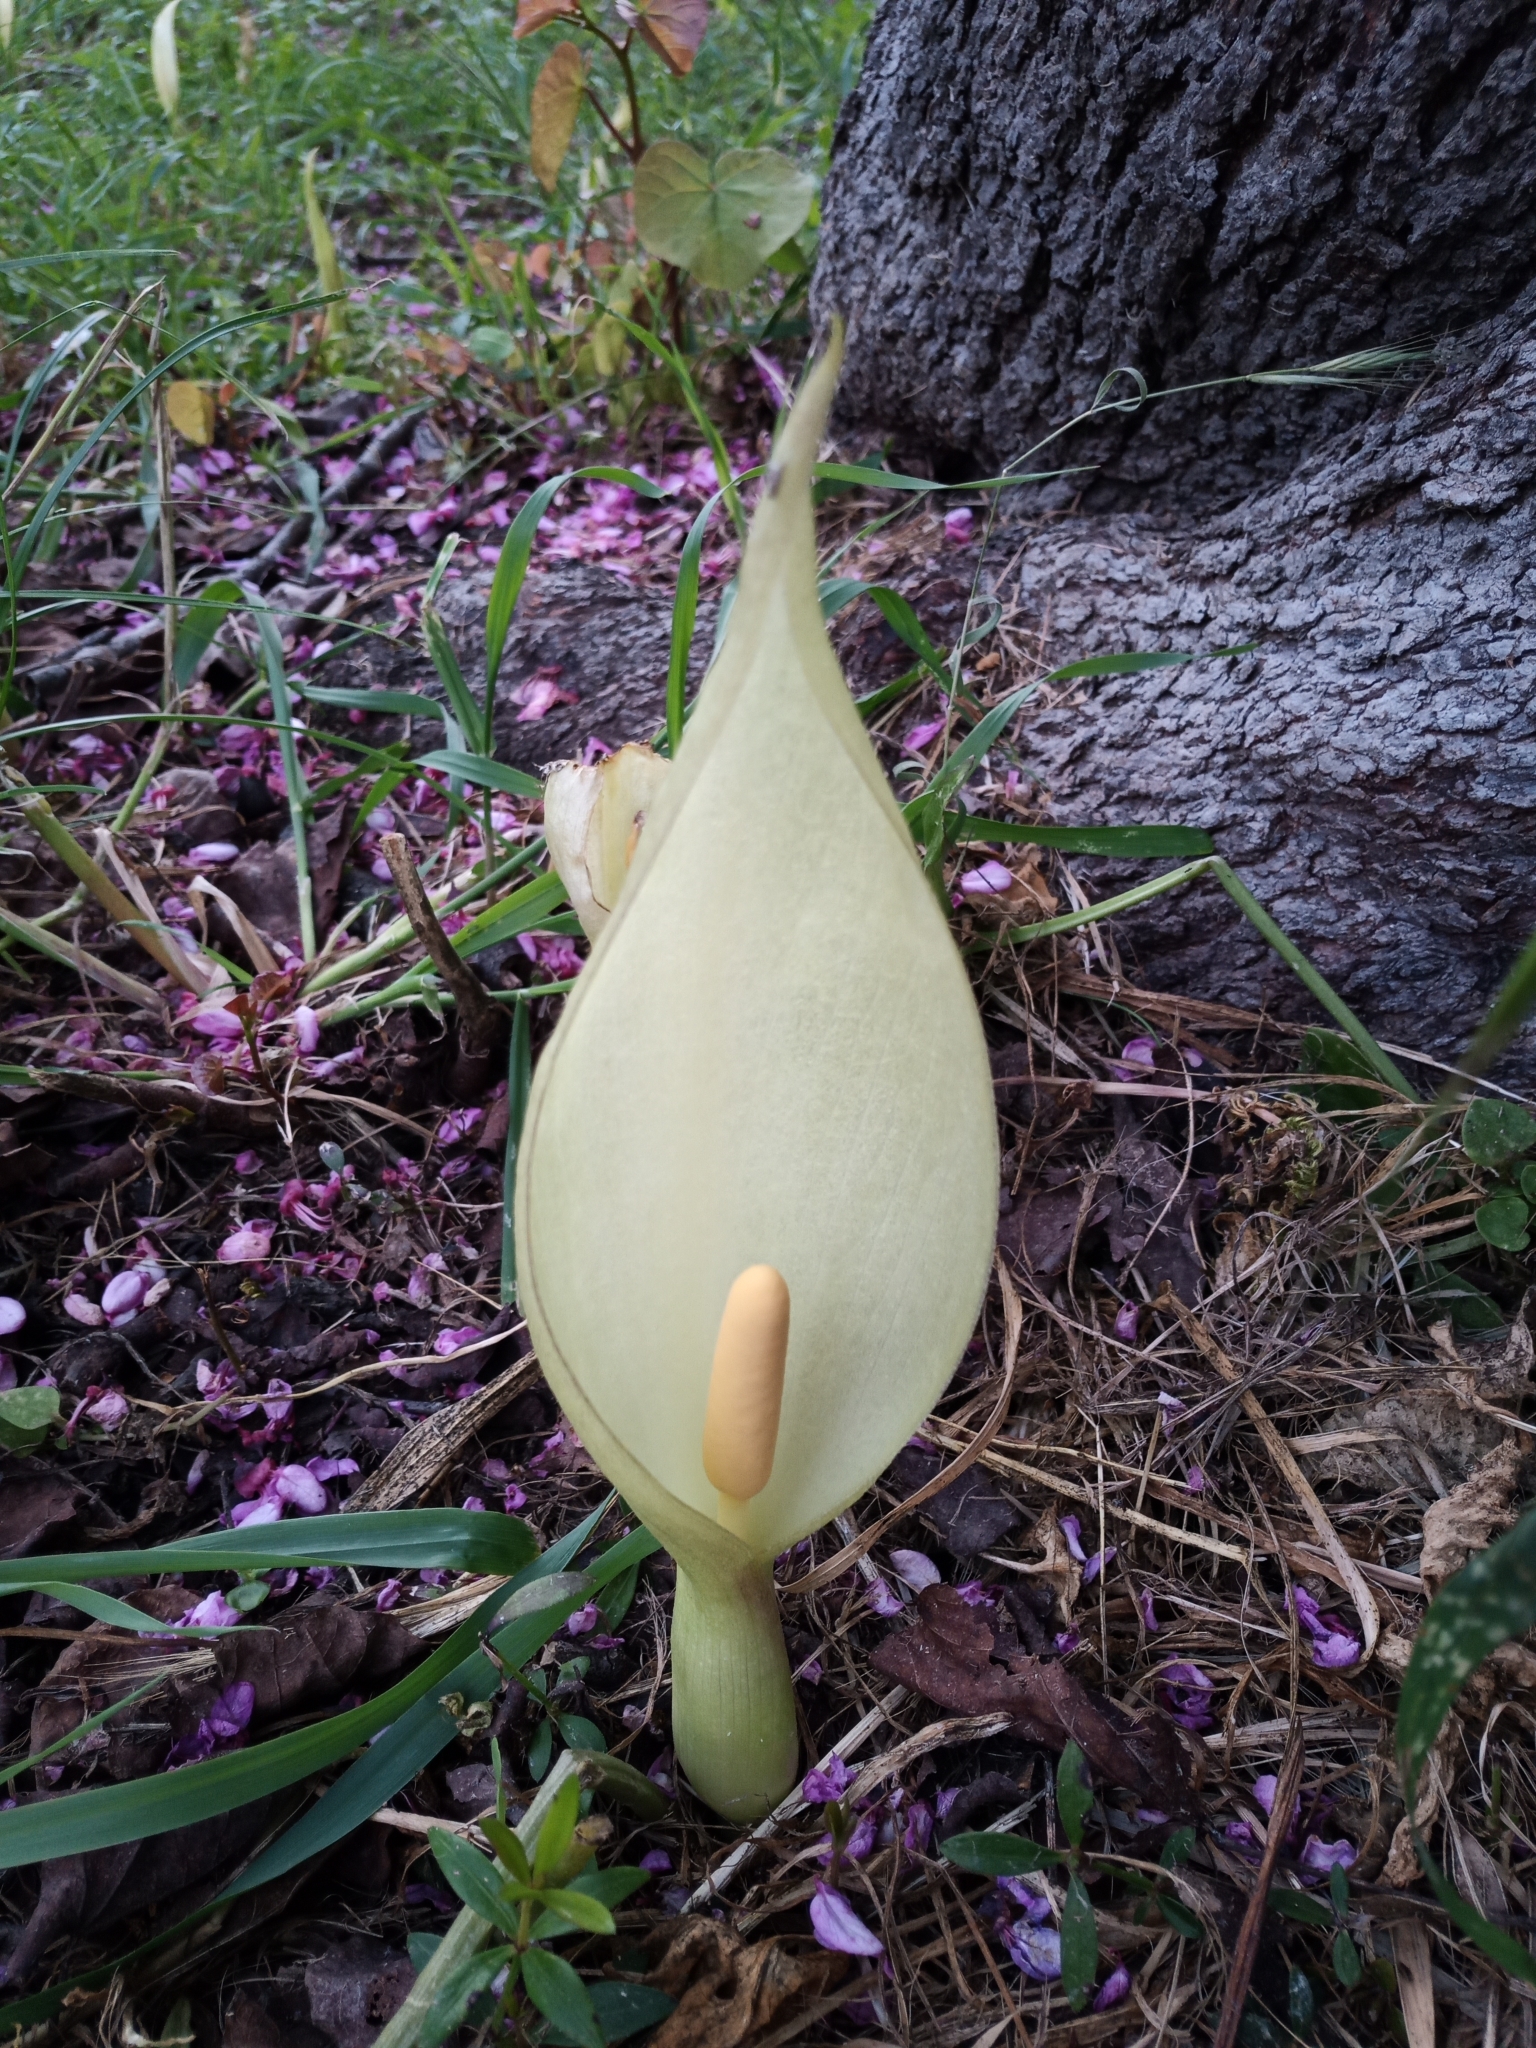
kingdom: Plantae
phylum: Tracheophyta
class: Liliopsida
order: Alismatales
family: Araceae
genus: Arum
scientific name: Arum italicum
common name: Italian lords-and-ladies
